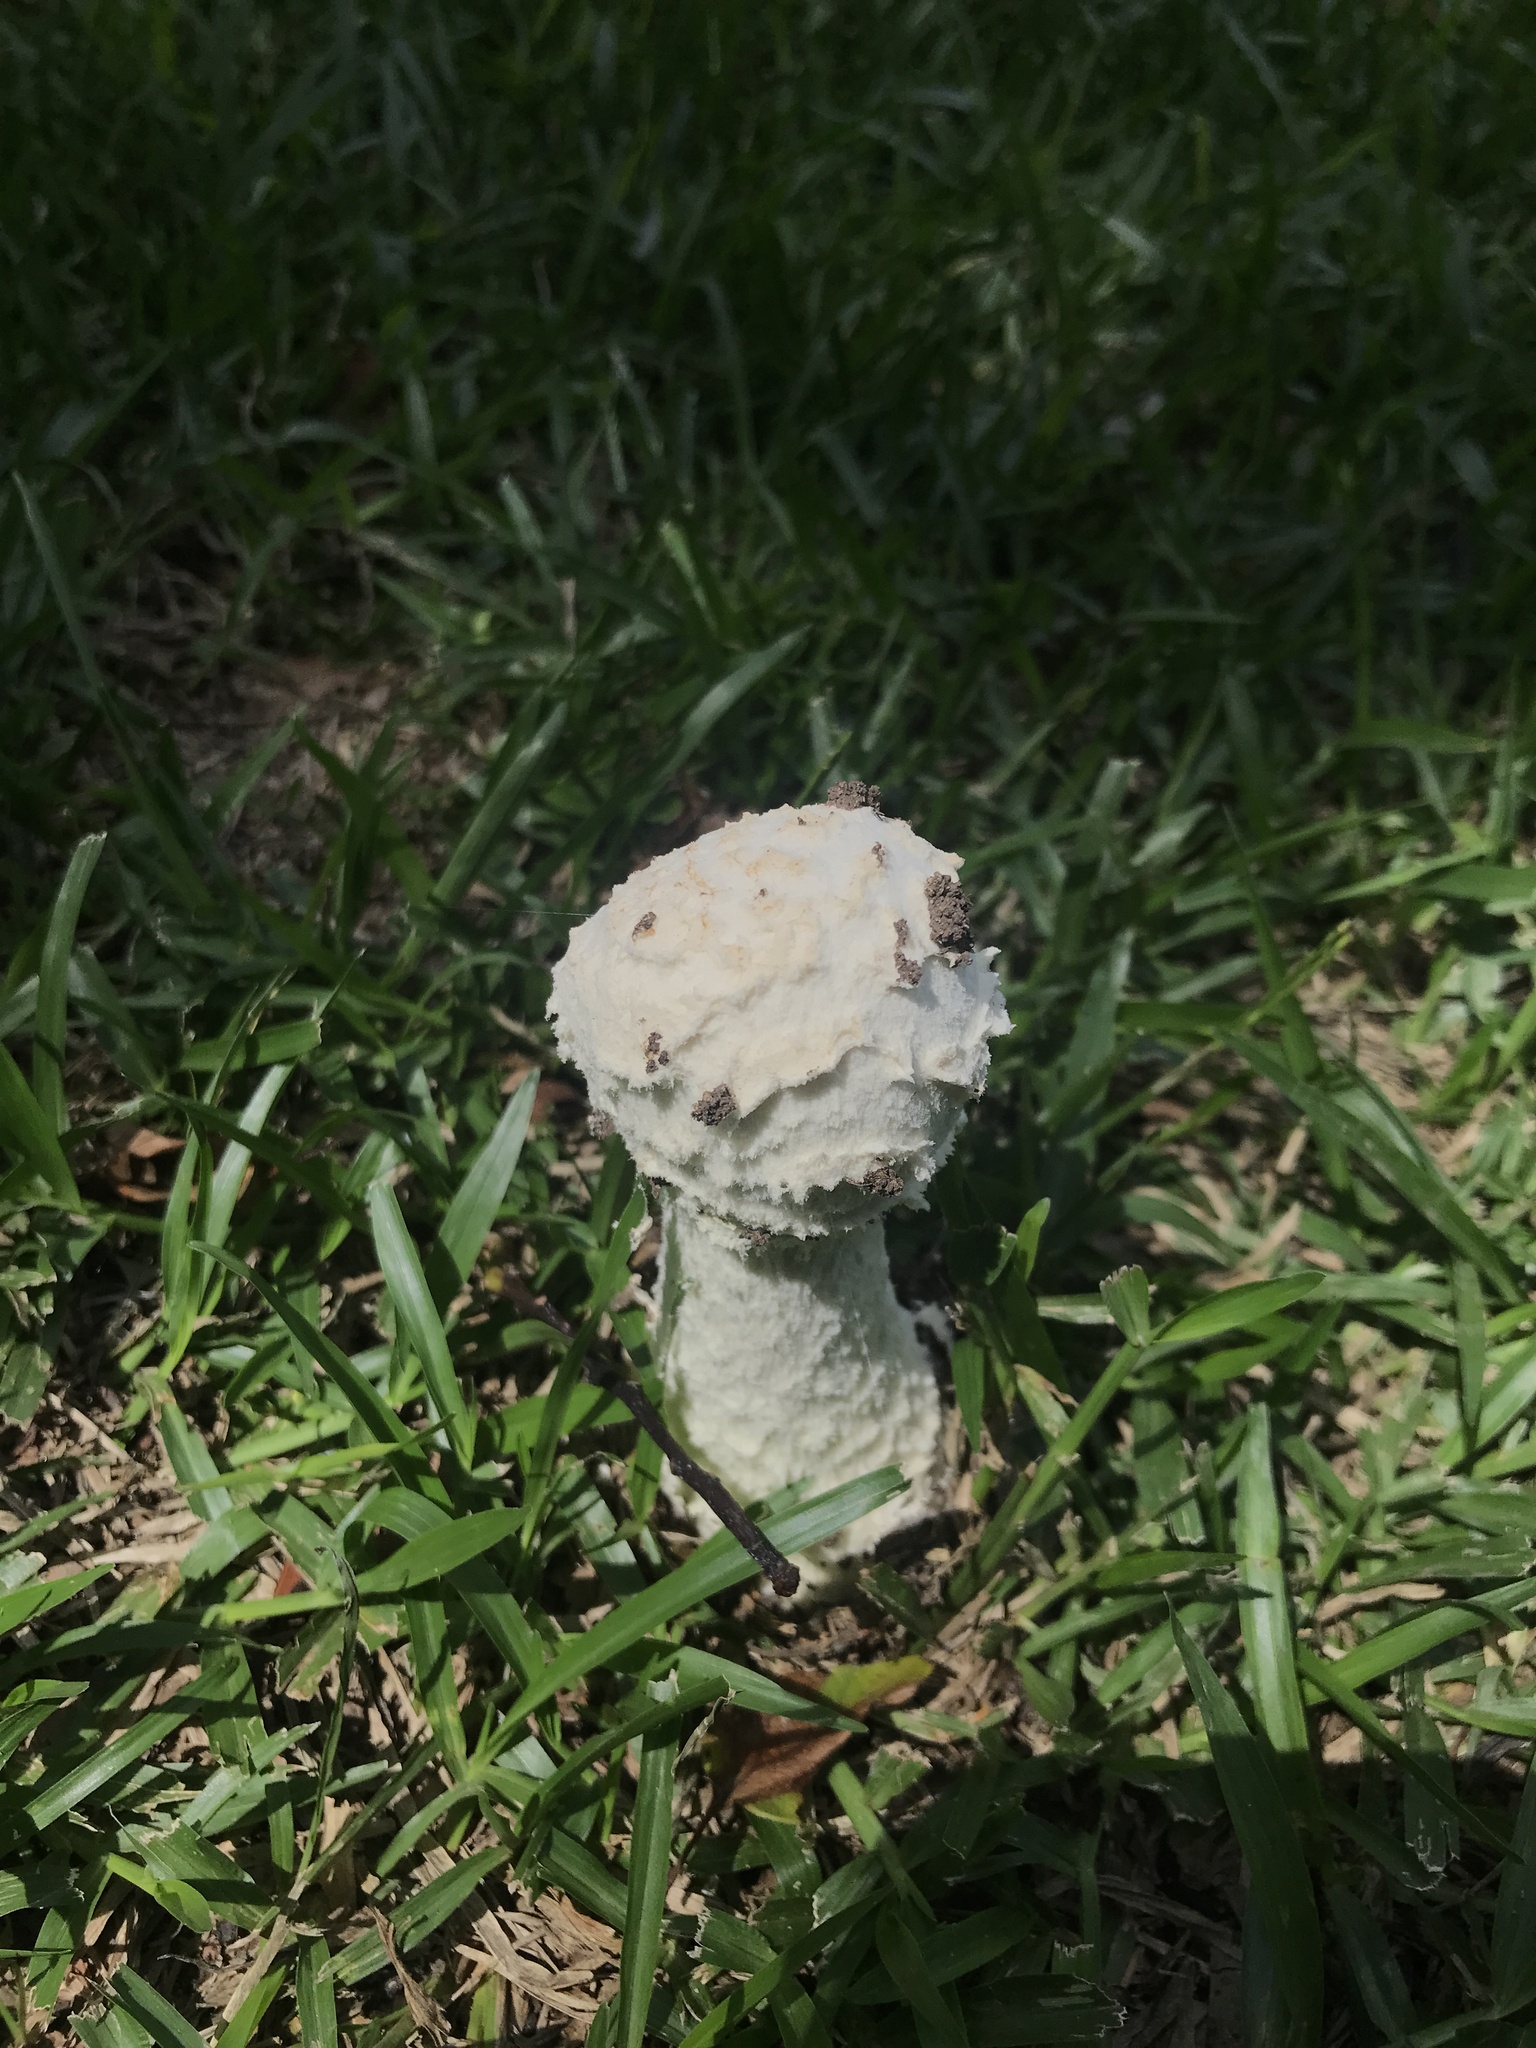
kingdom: Fungi
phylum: Basidiomycota
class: Agaricomycetes
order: Agaricales
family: Amanitaceae
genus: Aspidella
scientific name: Aspidella foetens
